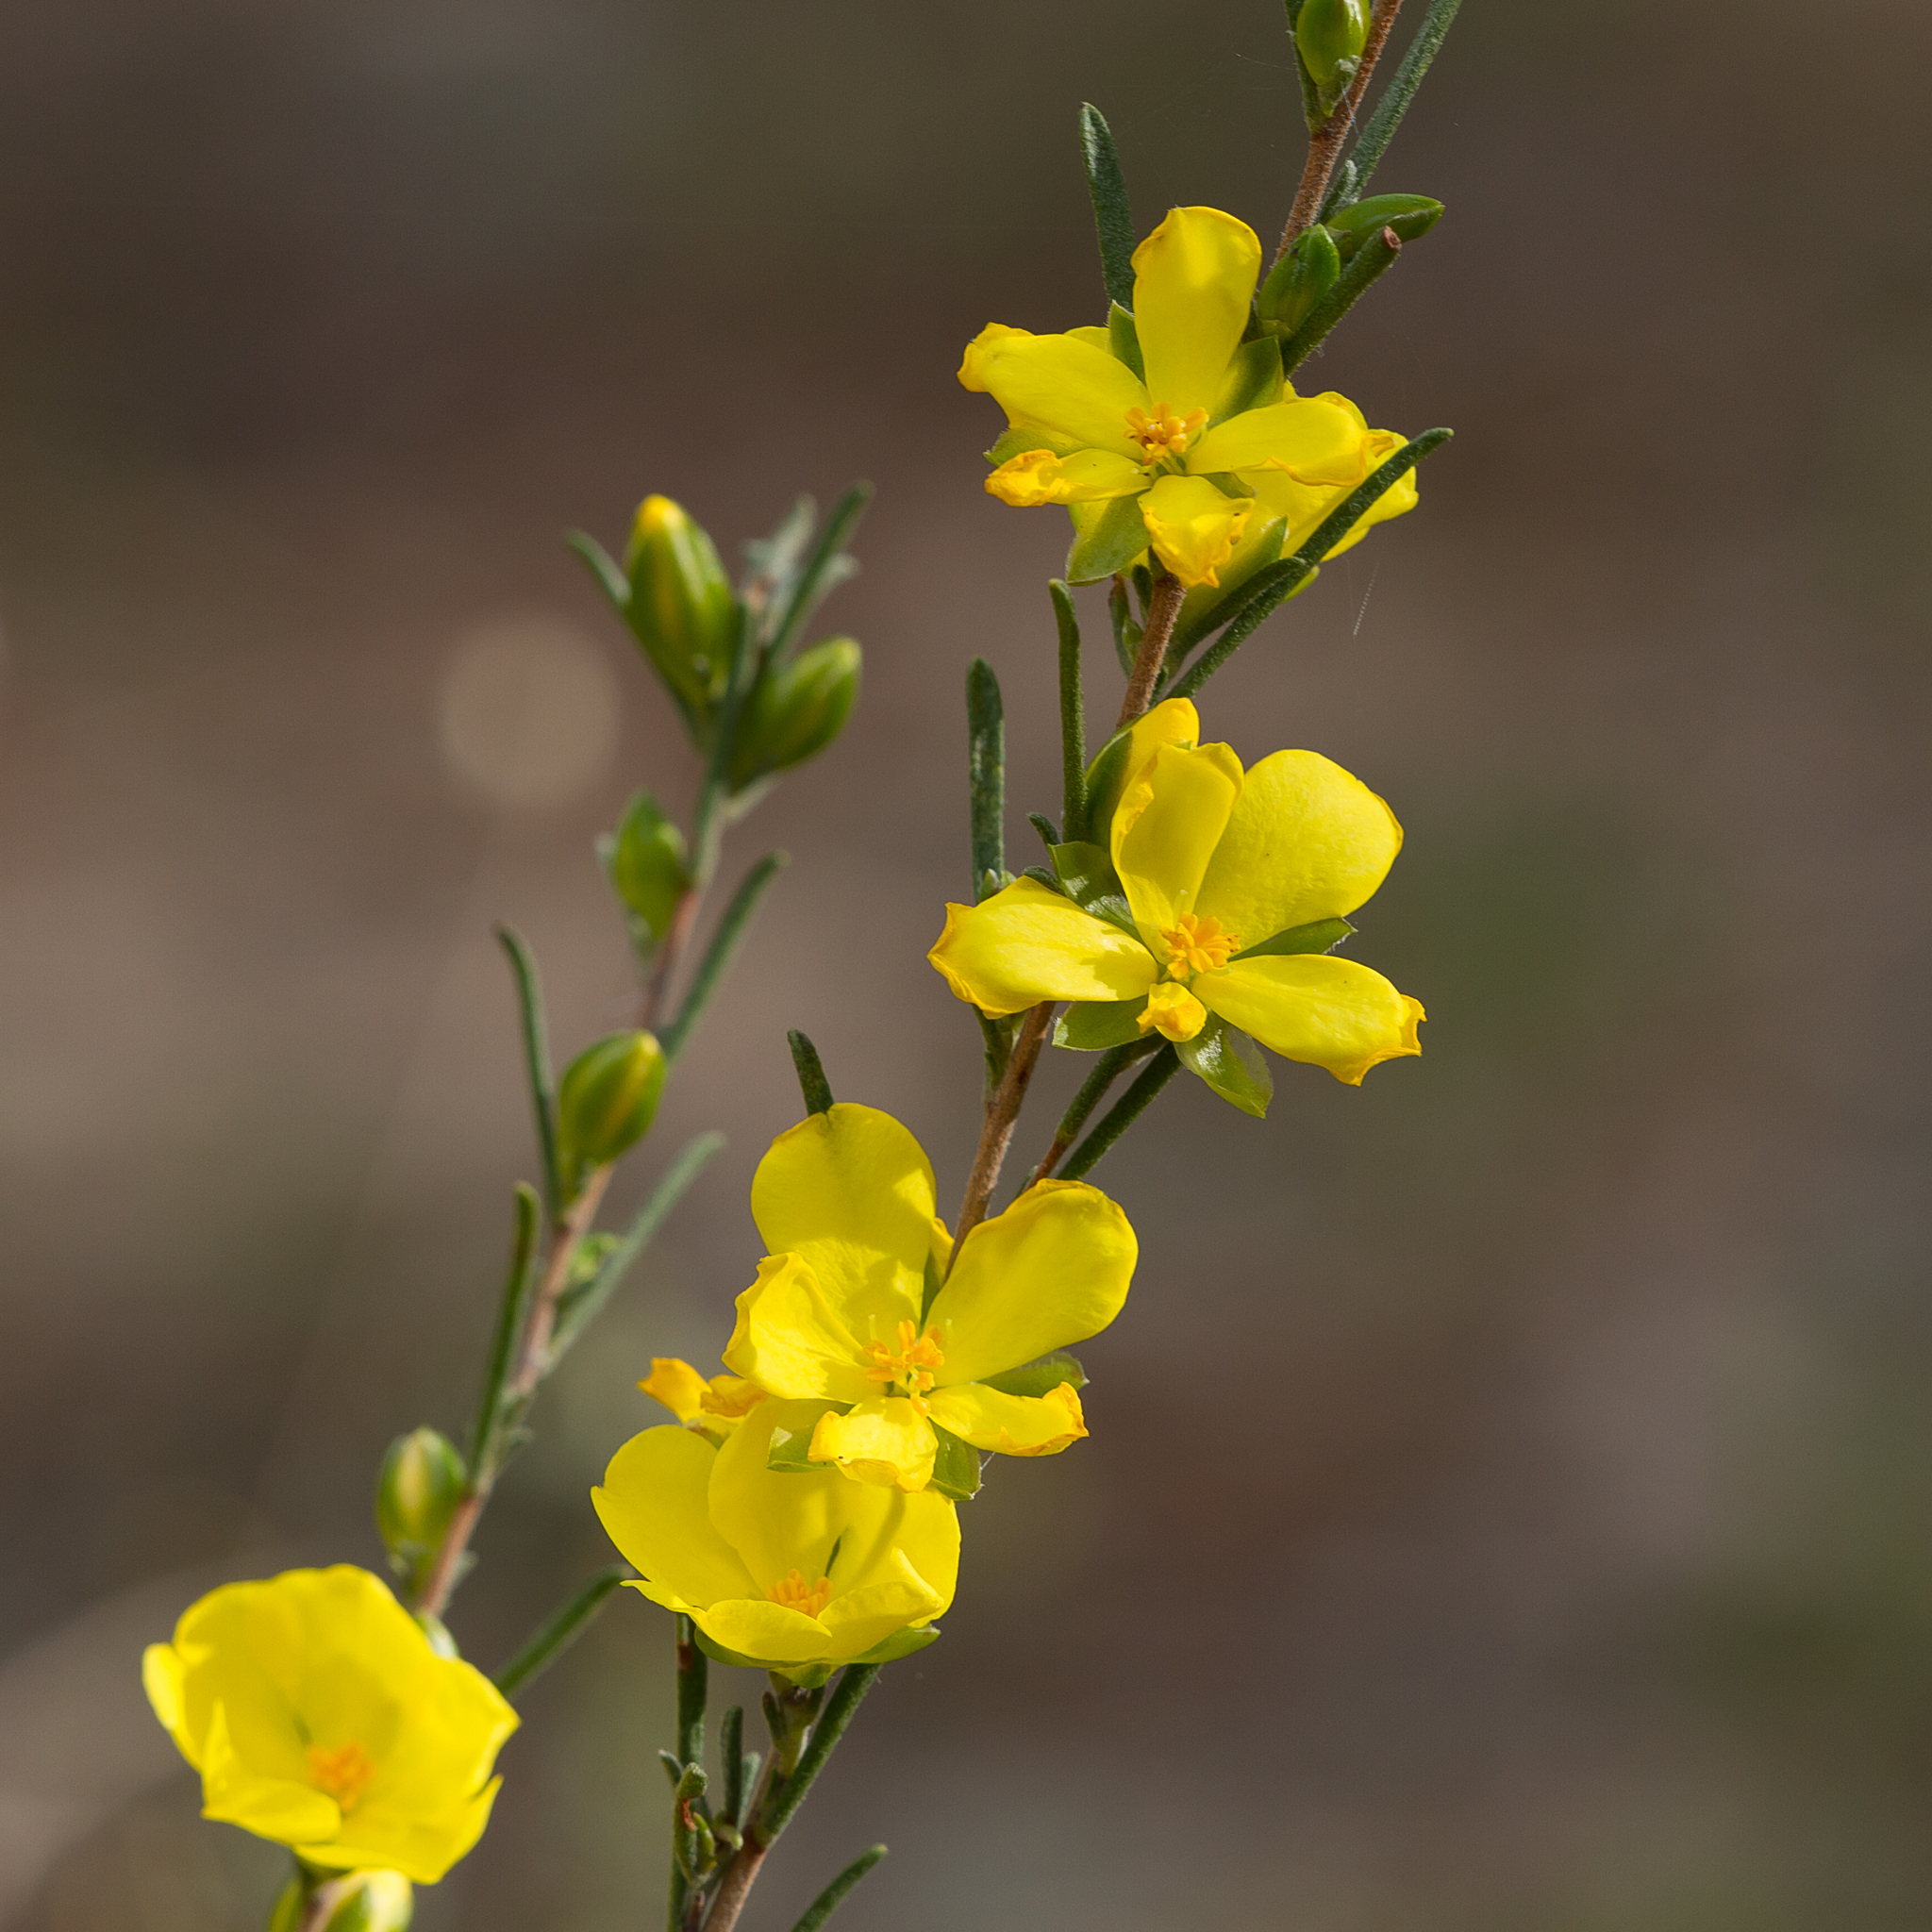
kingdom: Plantae
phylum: Tracheophyta
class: Magnoliopsida
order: Dilleniales
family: Dilleniaceae
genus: Hibbertia
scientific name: Hibbertia virgata
